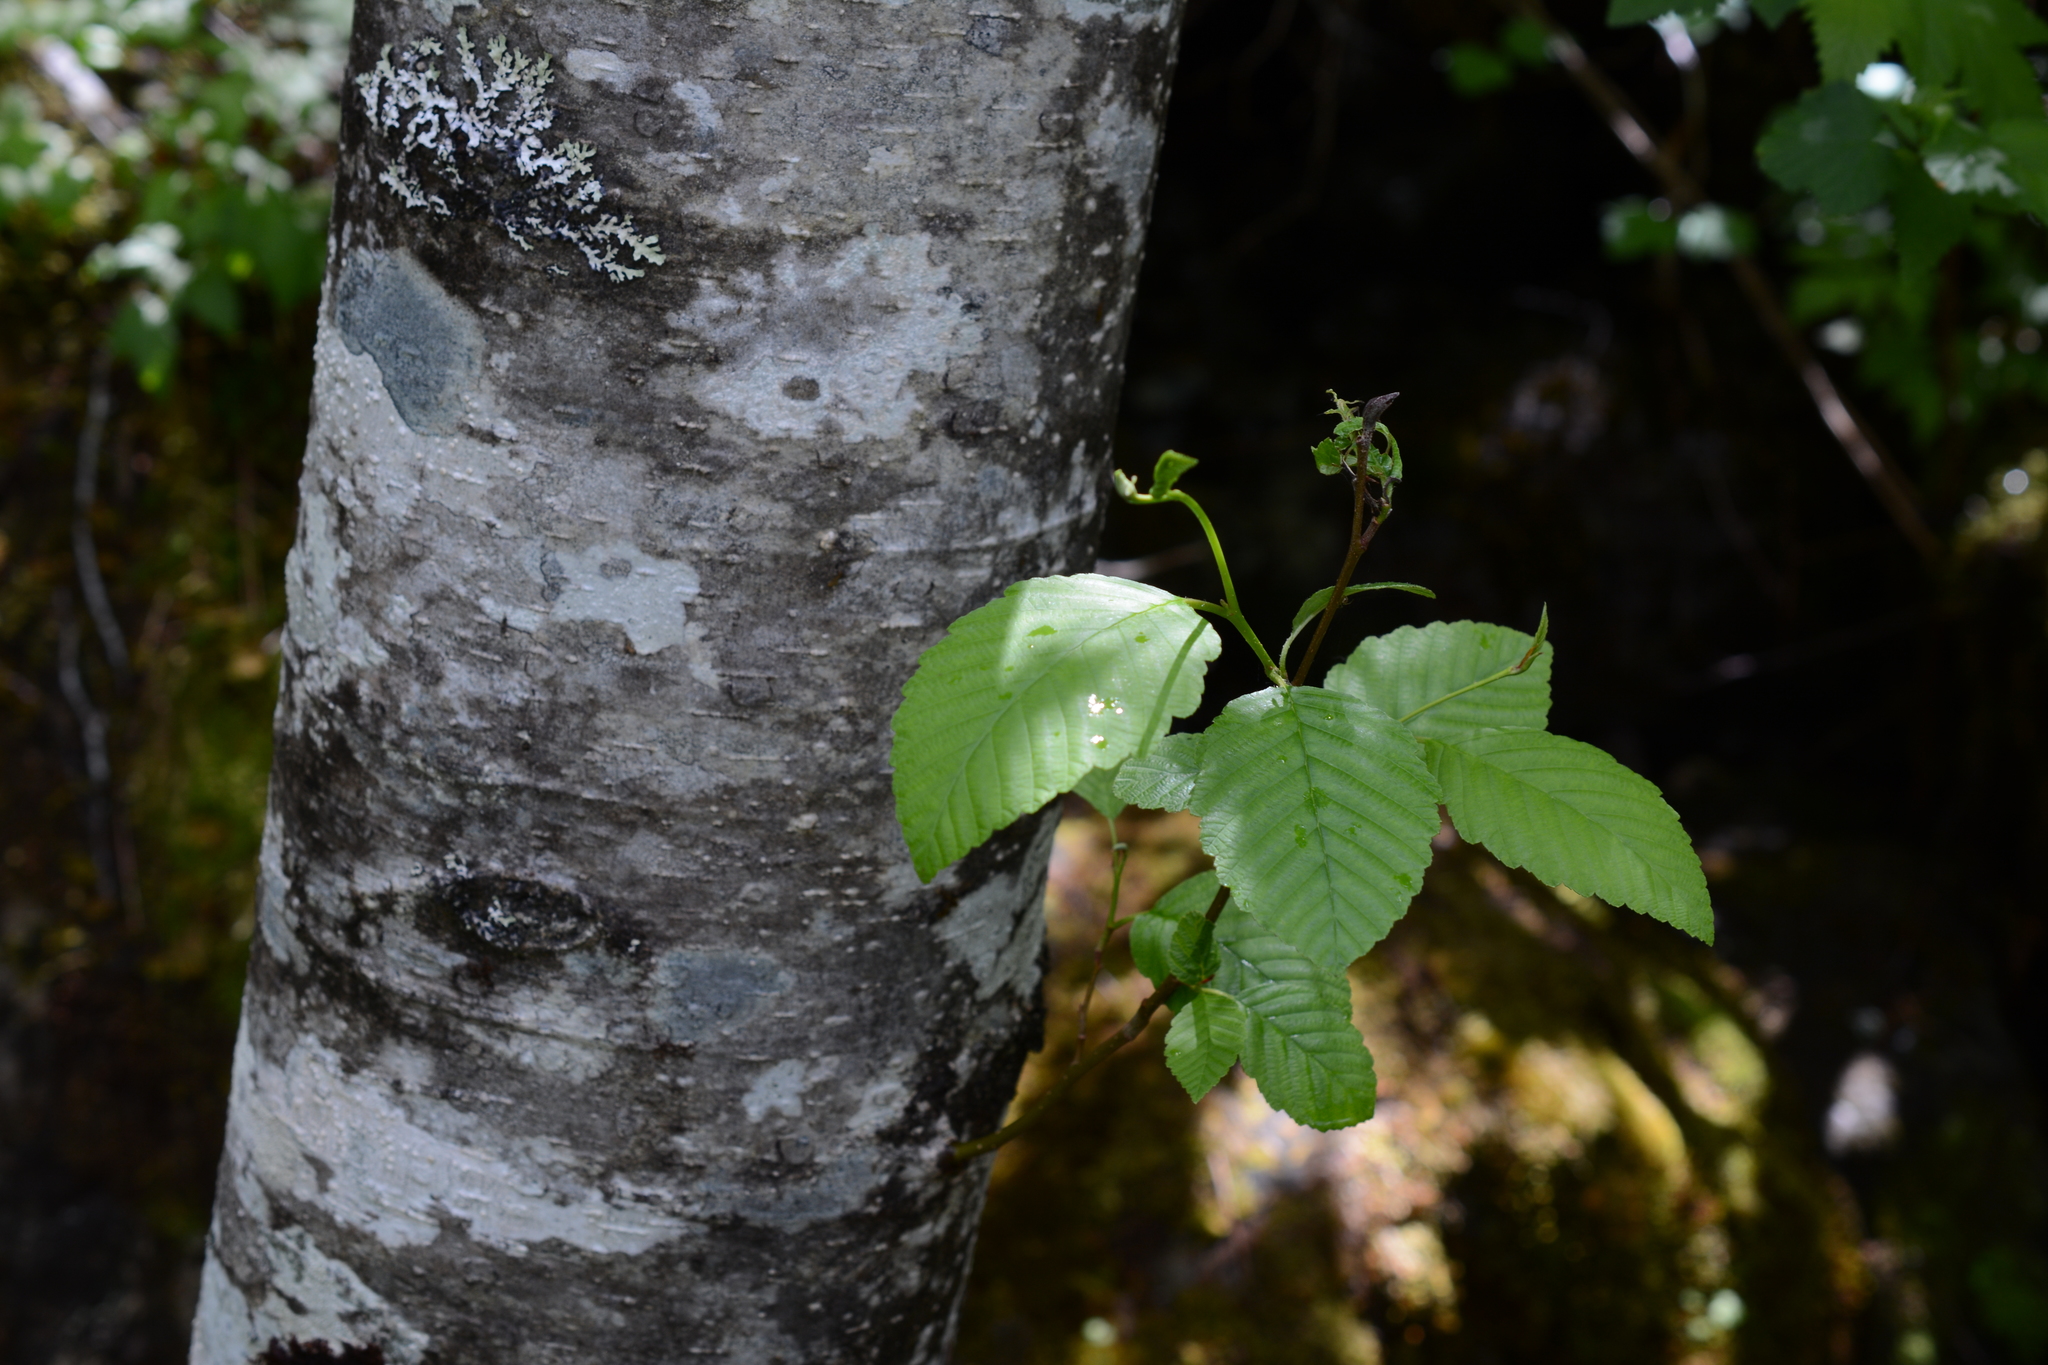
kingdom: Plantae
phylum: Tracheophyta
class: Magnoliopsida
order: Fagales
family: Betulaceae
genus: Alnus
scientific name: Alnus rubra
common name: Red alder
